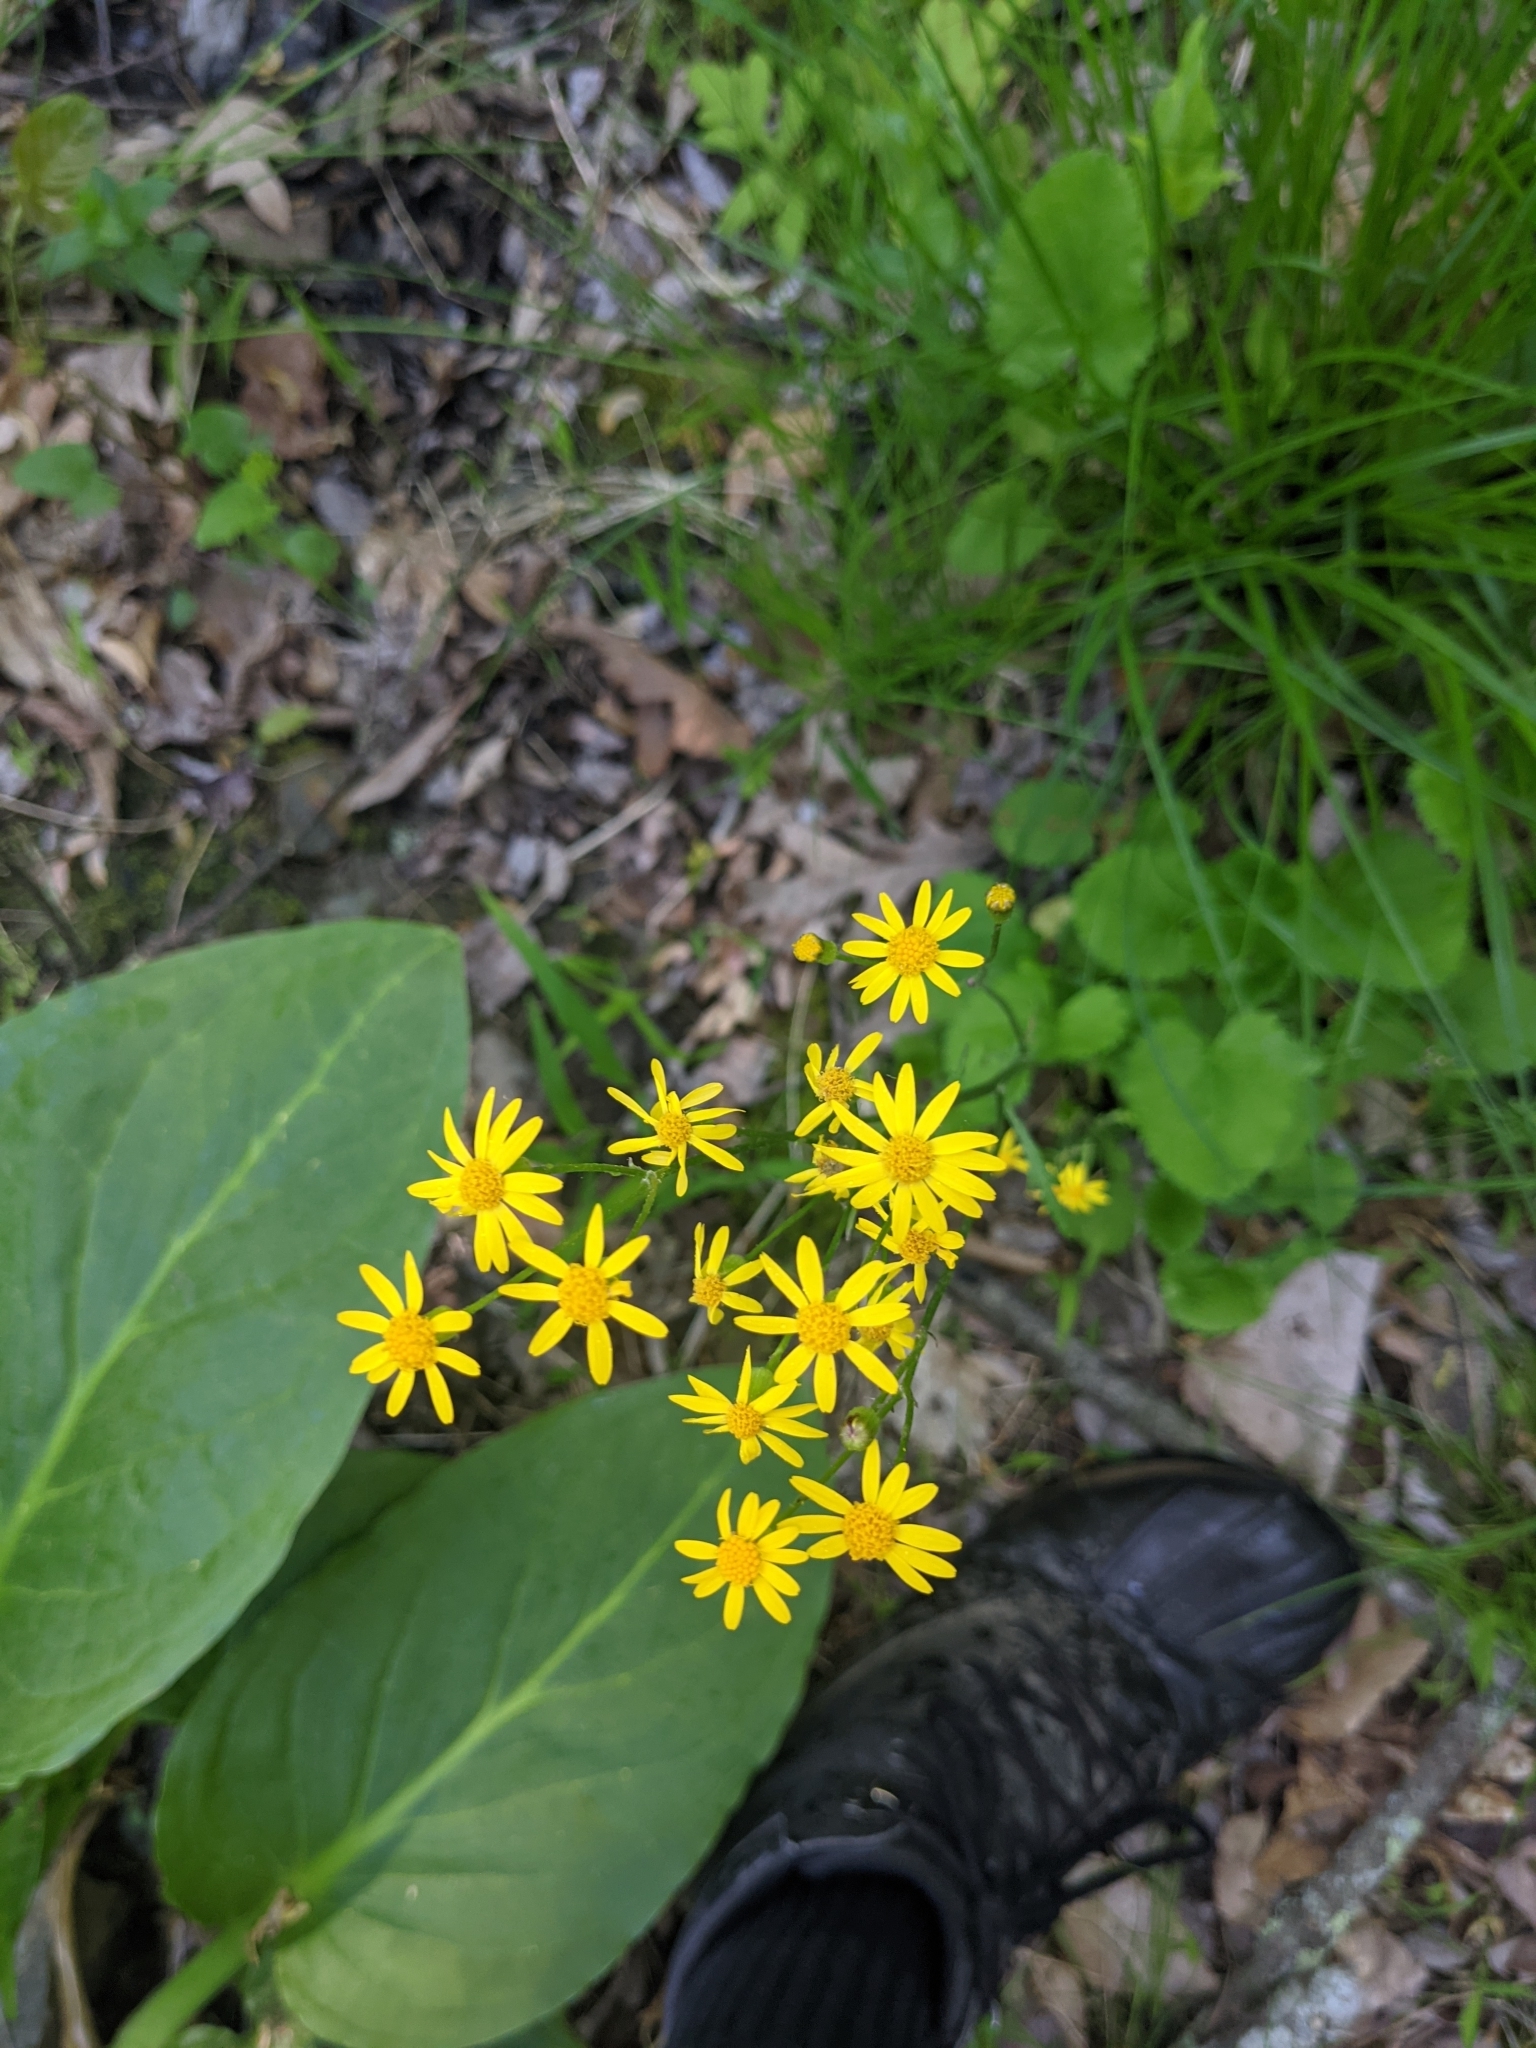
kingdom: Plantae
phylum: Tracheophyta
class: Magnoliopsida
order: Asterales
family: Asteraceae
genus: Packera
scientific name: Packera aurea
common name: Golden groundsel
